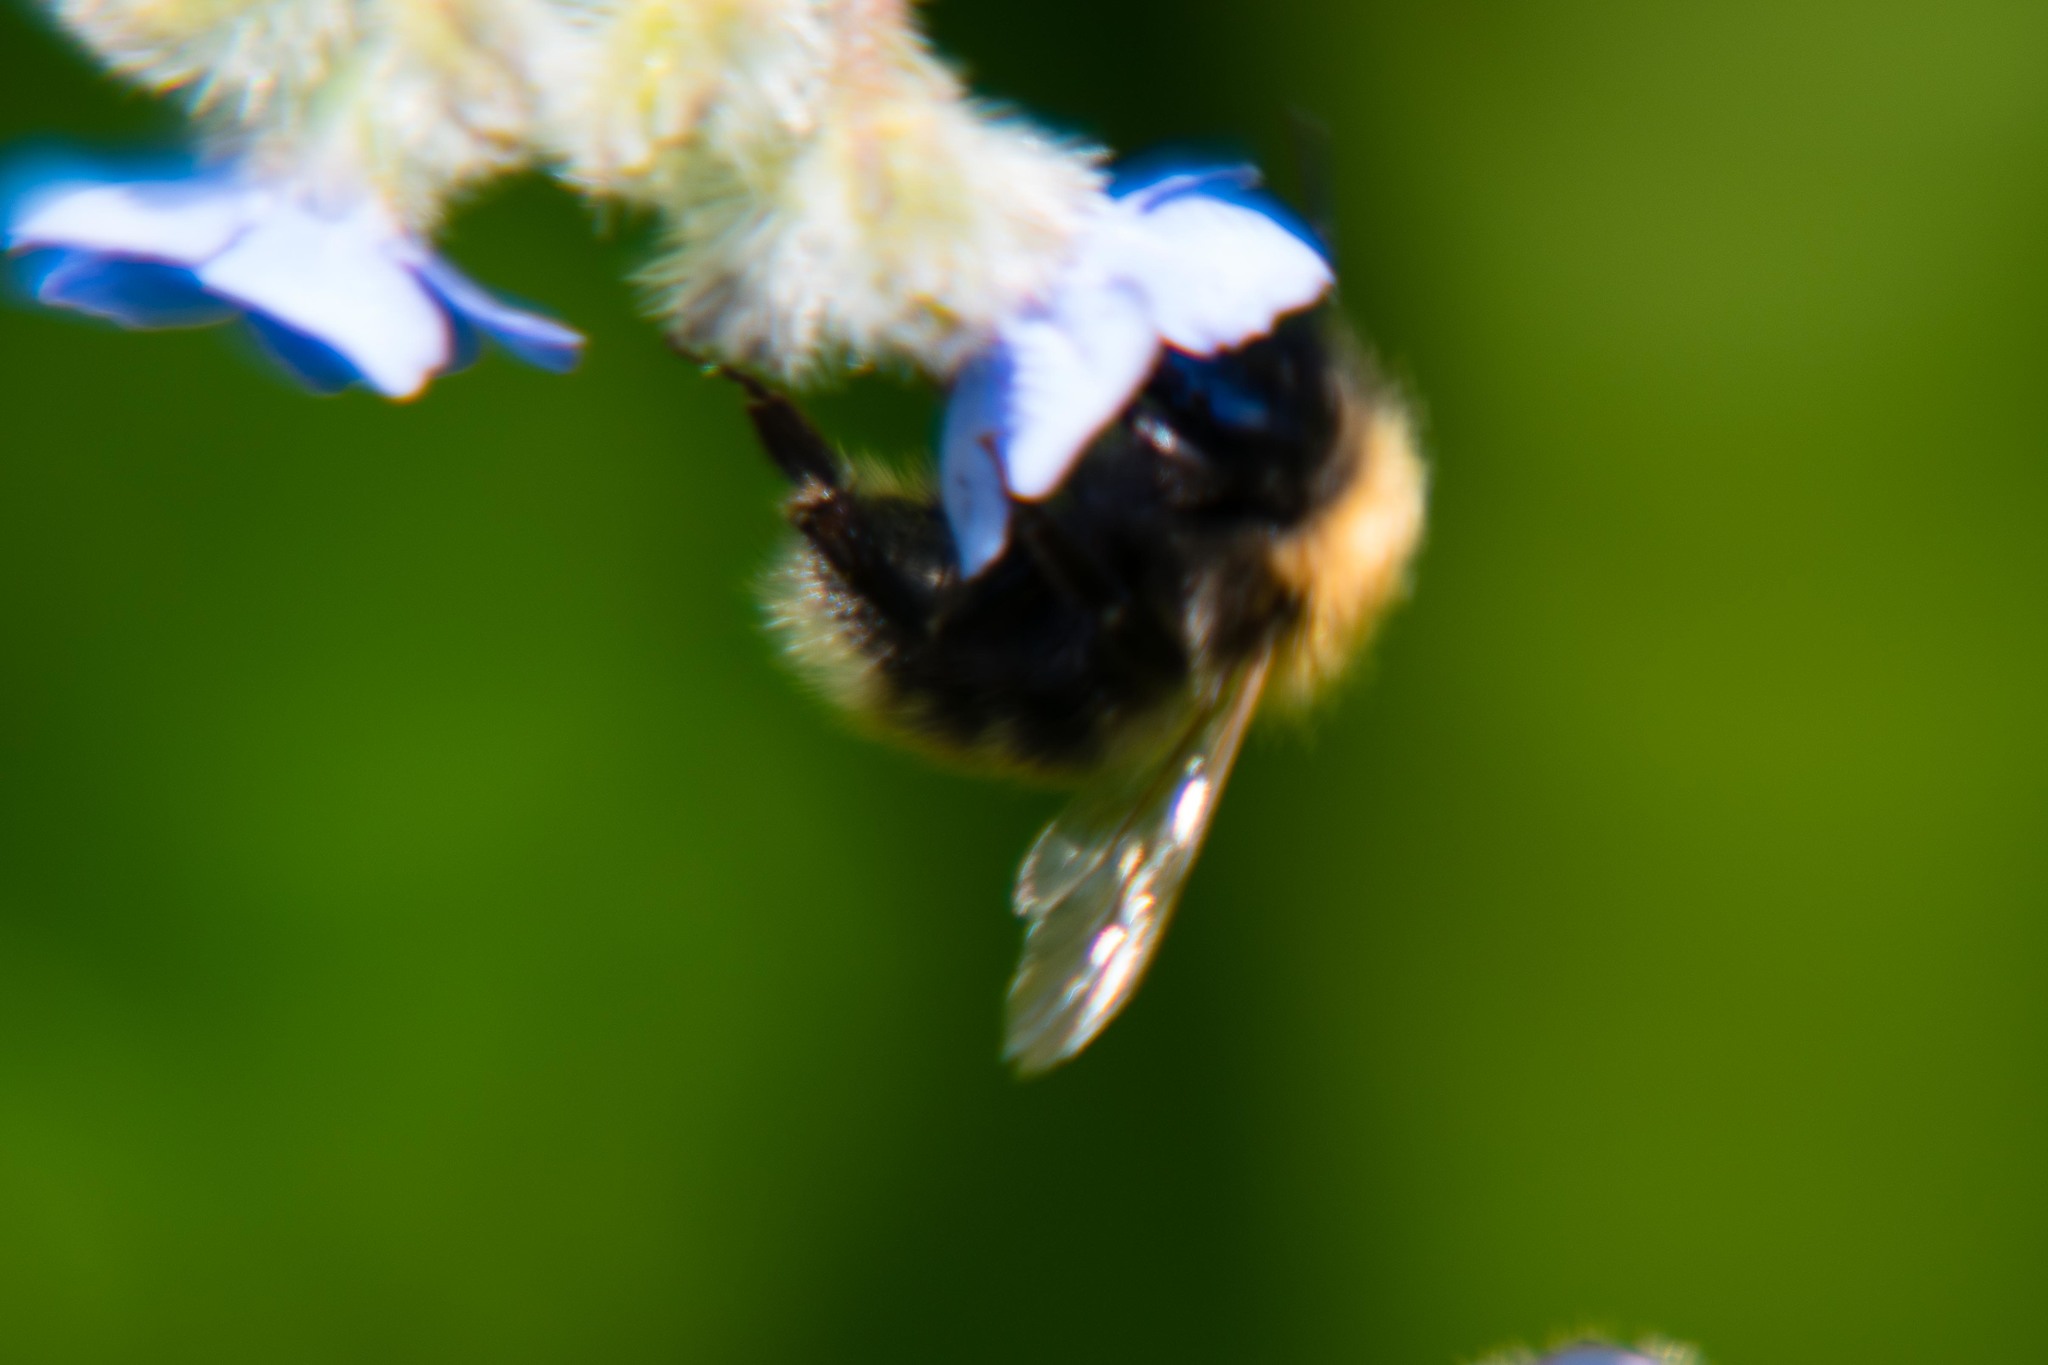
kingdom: Animalia
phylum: Arthropoda
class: Insecta
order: Hymenoptera
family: Apidae
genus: Bombus
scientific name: Bombus hypnorum
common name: New garden bumblebee
